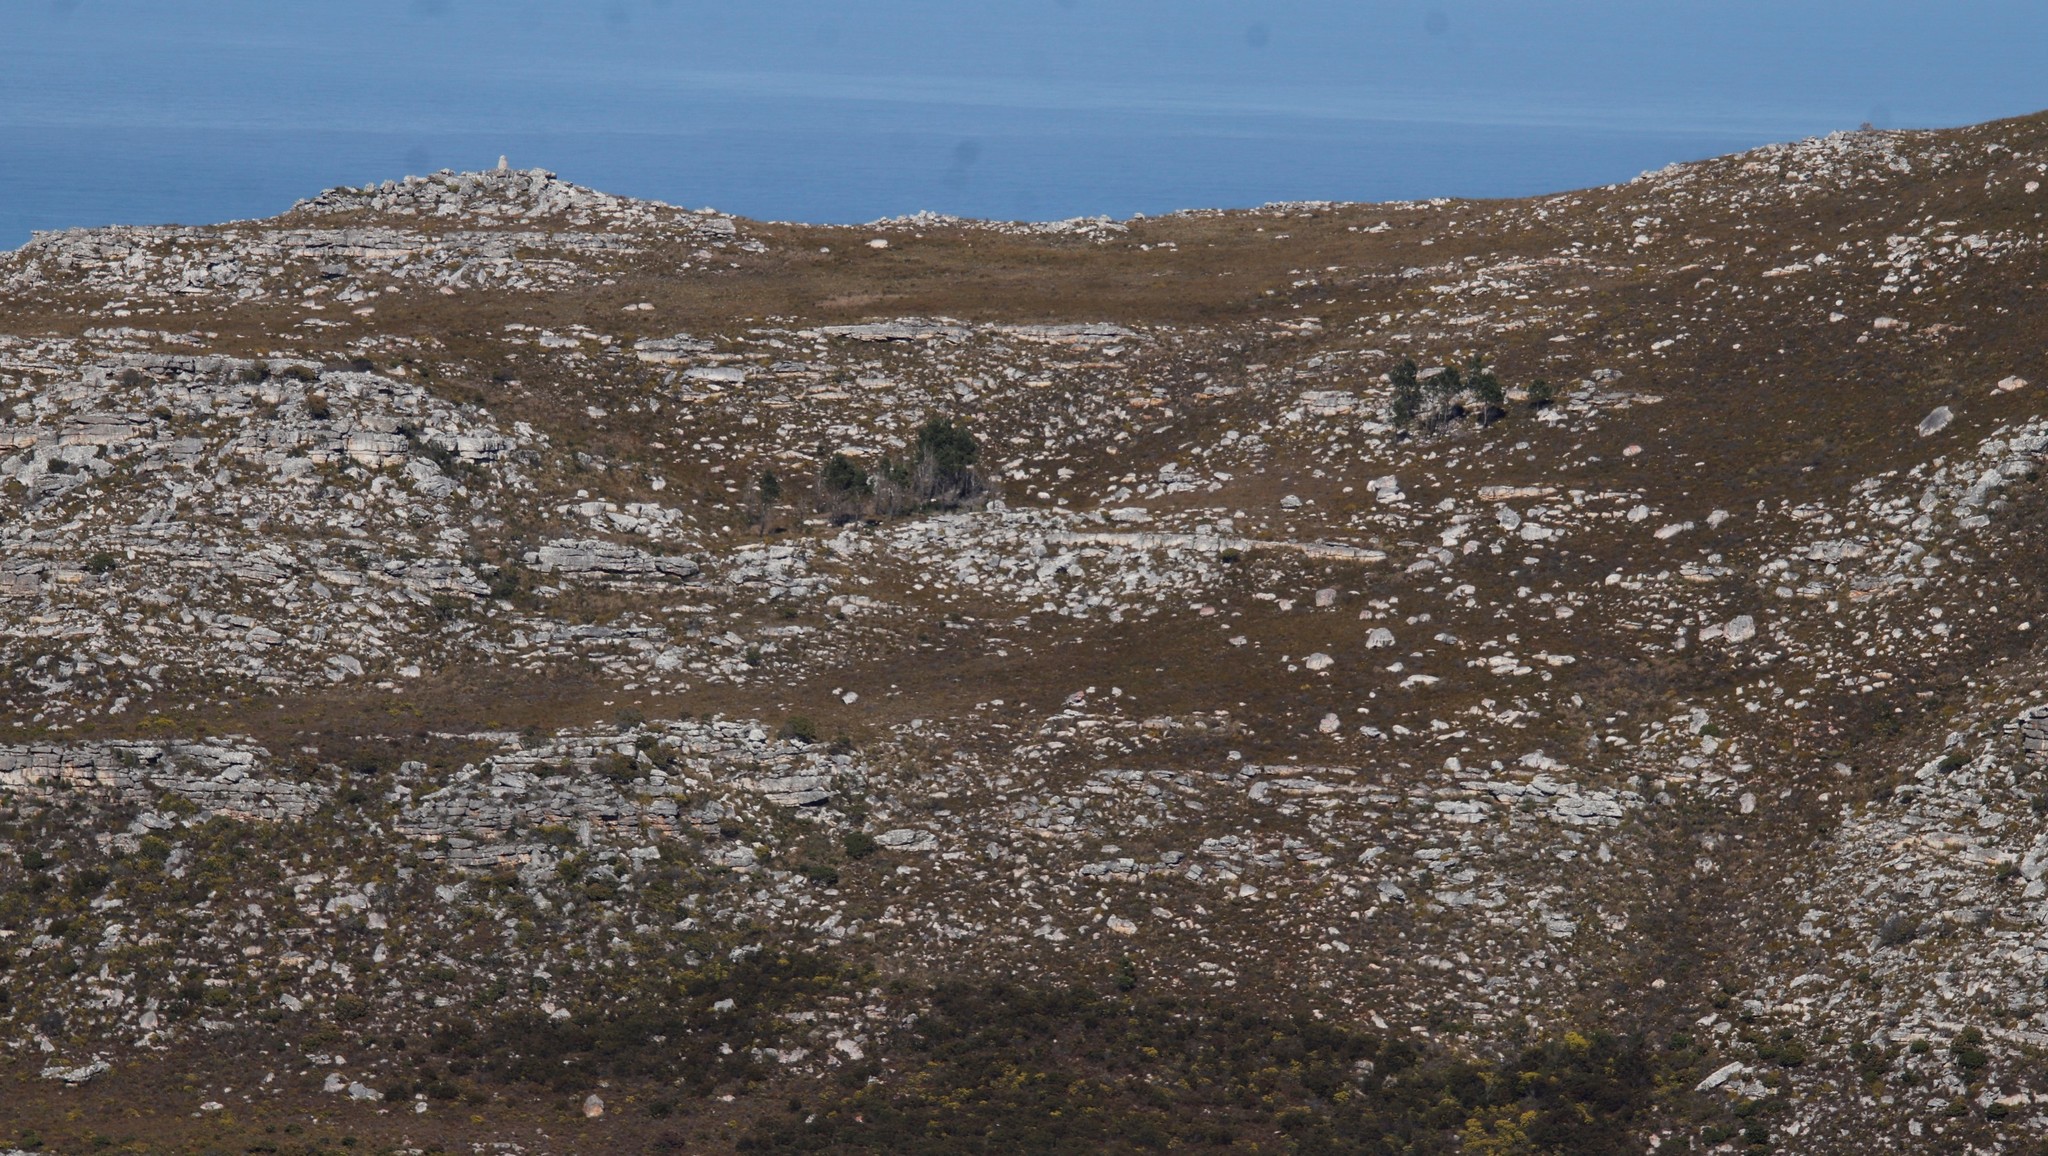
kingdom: Plantae
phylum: Tracheophyta
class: Pinopsida
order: Pinales
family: Pinaceae
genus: Pinus
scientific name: Pinus pinaster
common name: Maritime pine
